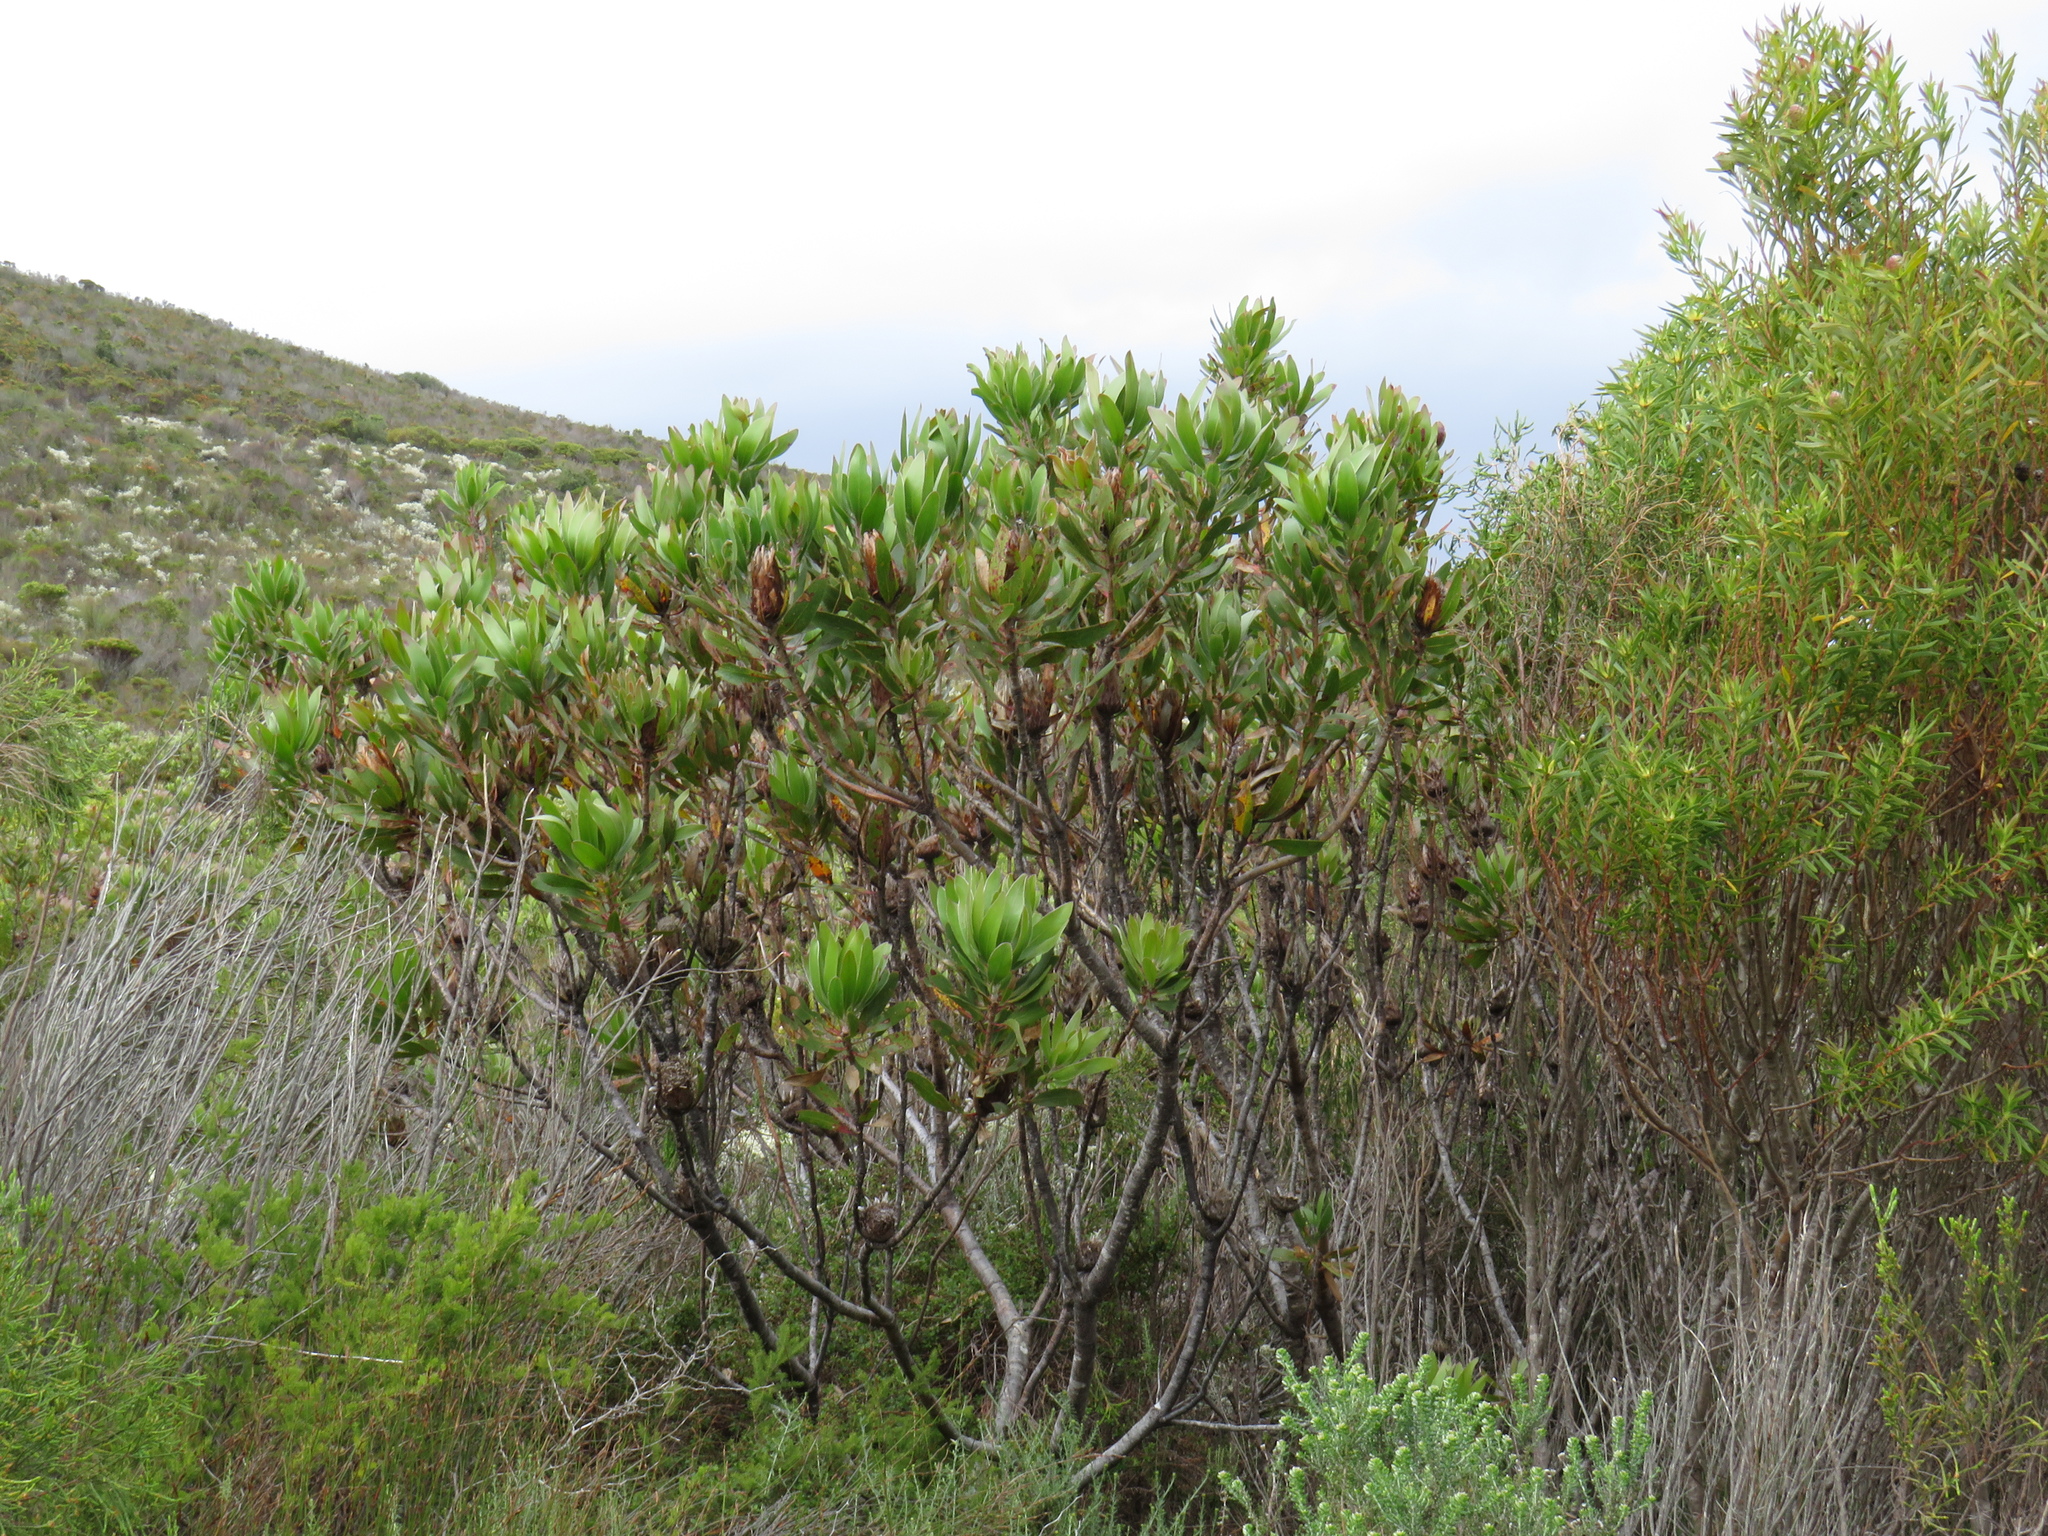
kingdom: Plantae
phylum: Tracheophyta
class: Magnoliopsida
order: Proteales
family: Proteaceae
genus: Protea
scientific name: Protea obtusifolia
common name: Bredasdorp sugarbush
